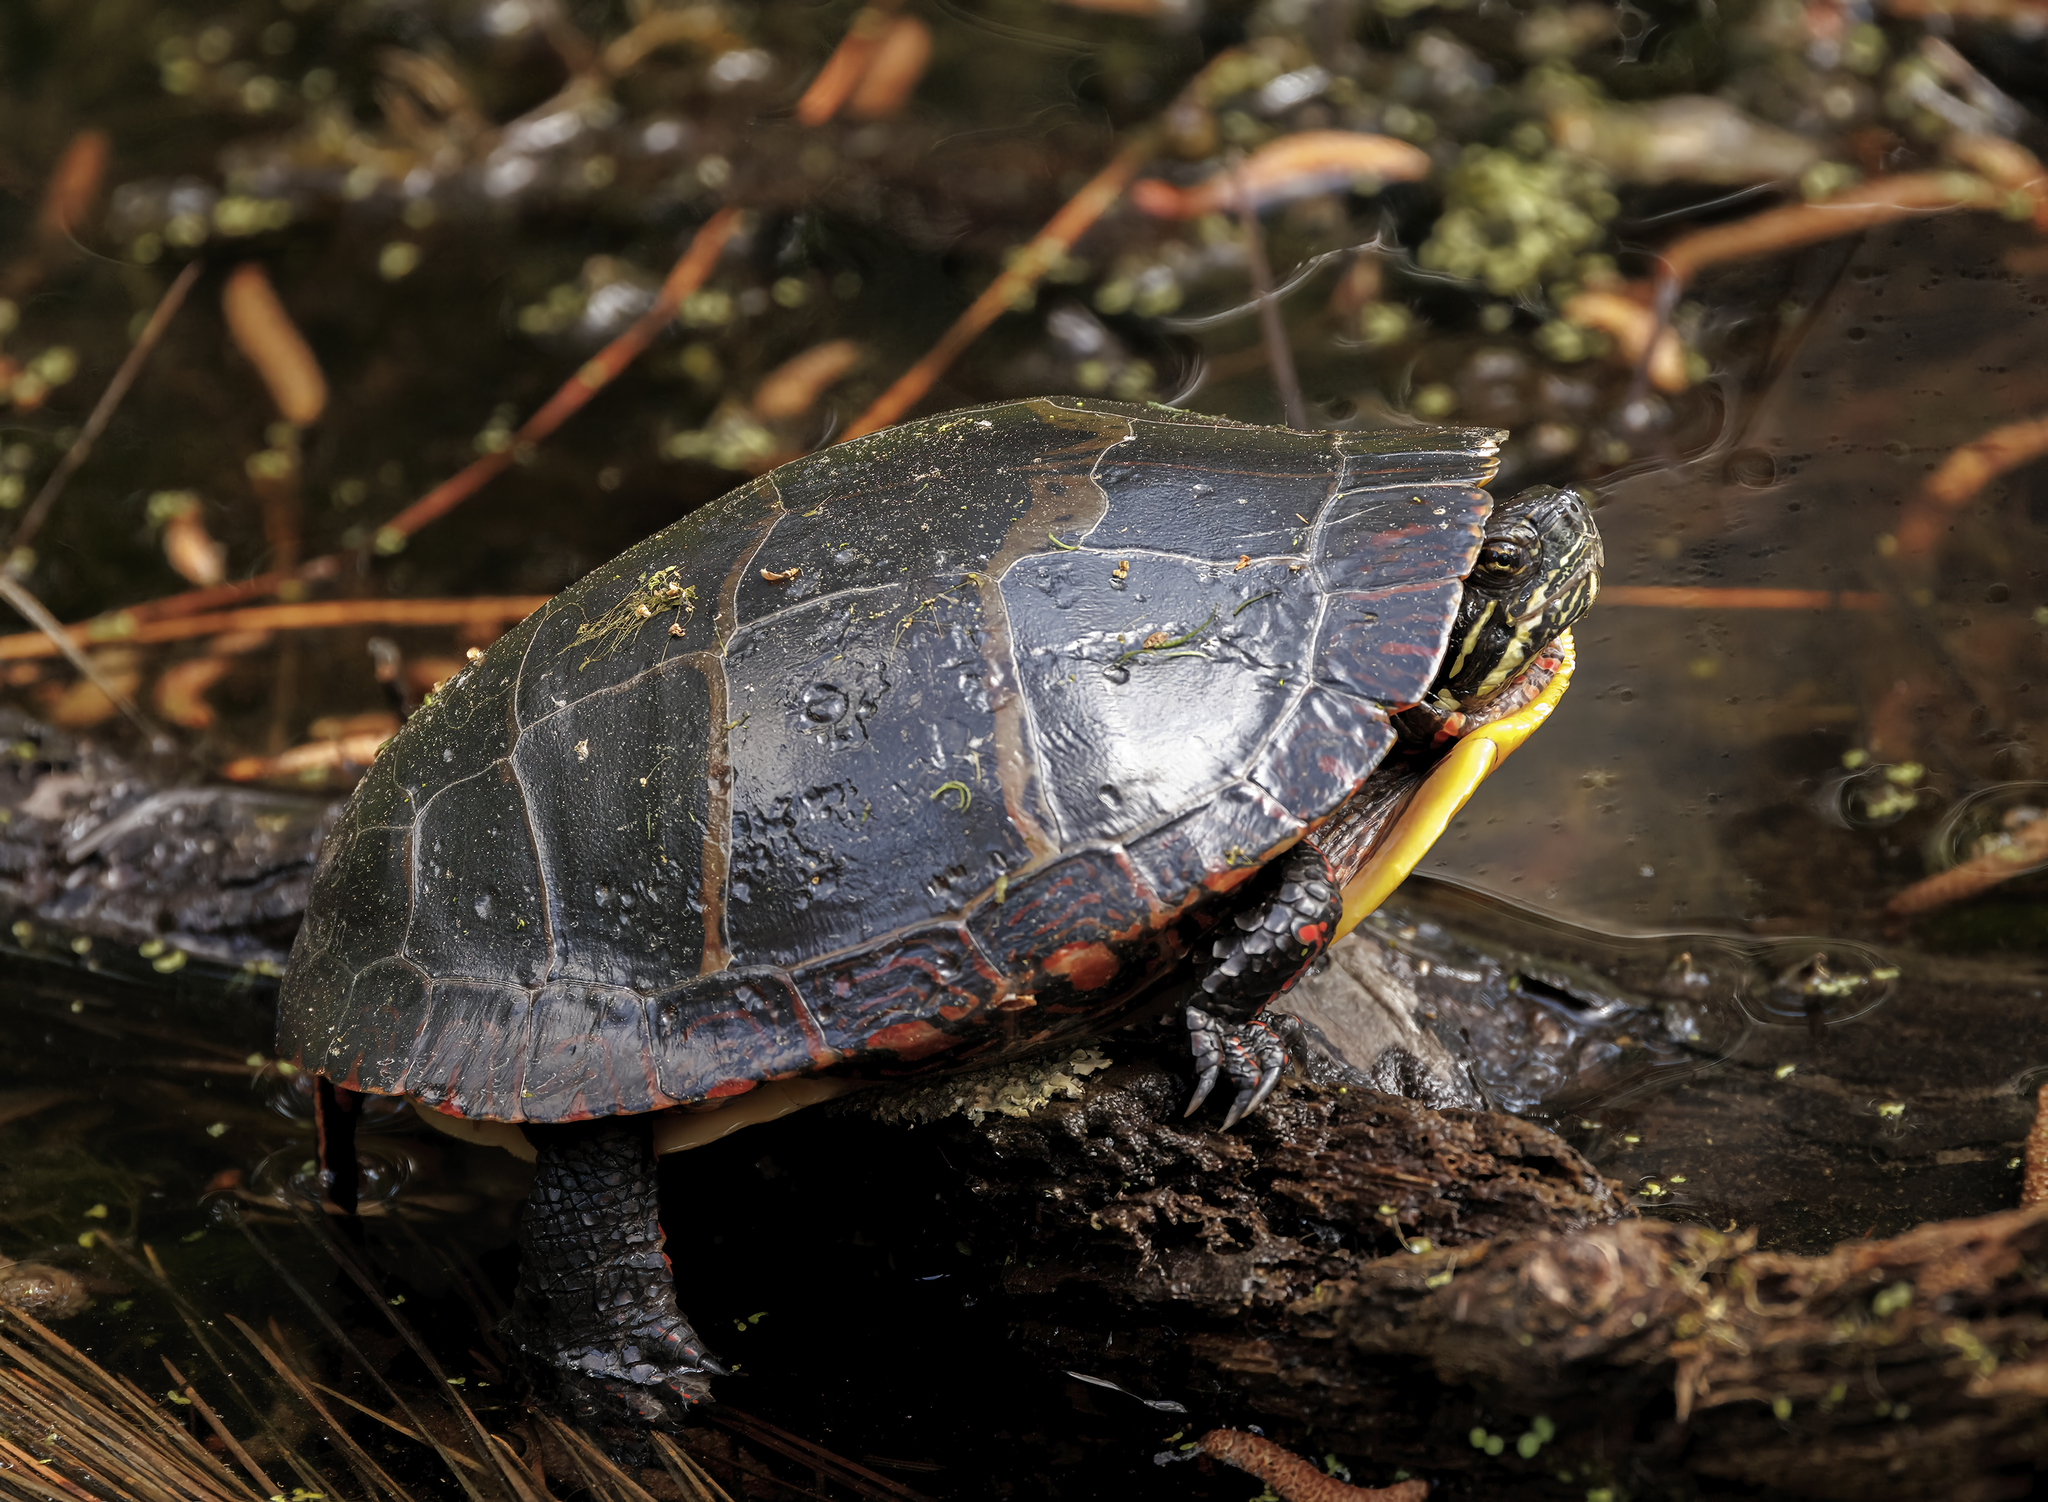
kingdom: Animalia
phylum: Chordata
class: Testudines
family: Emydidae
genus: Chrysemys
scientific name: Chrysemys picta
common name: Painted turtle
